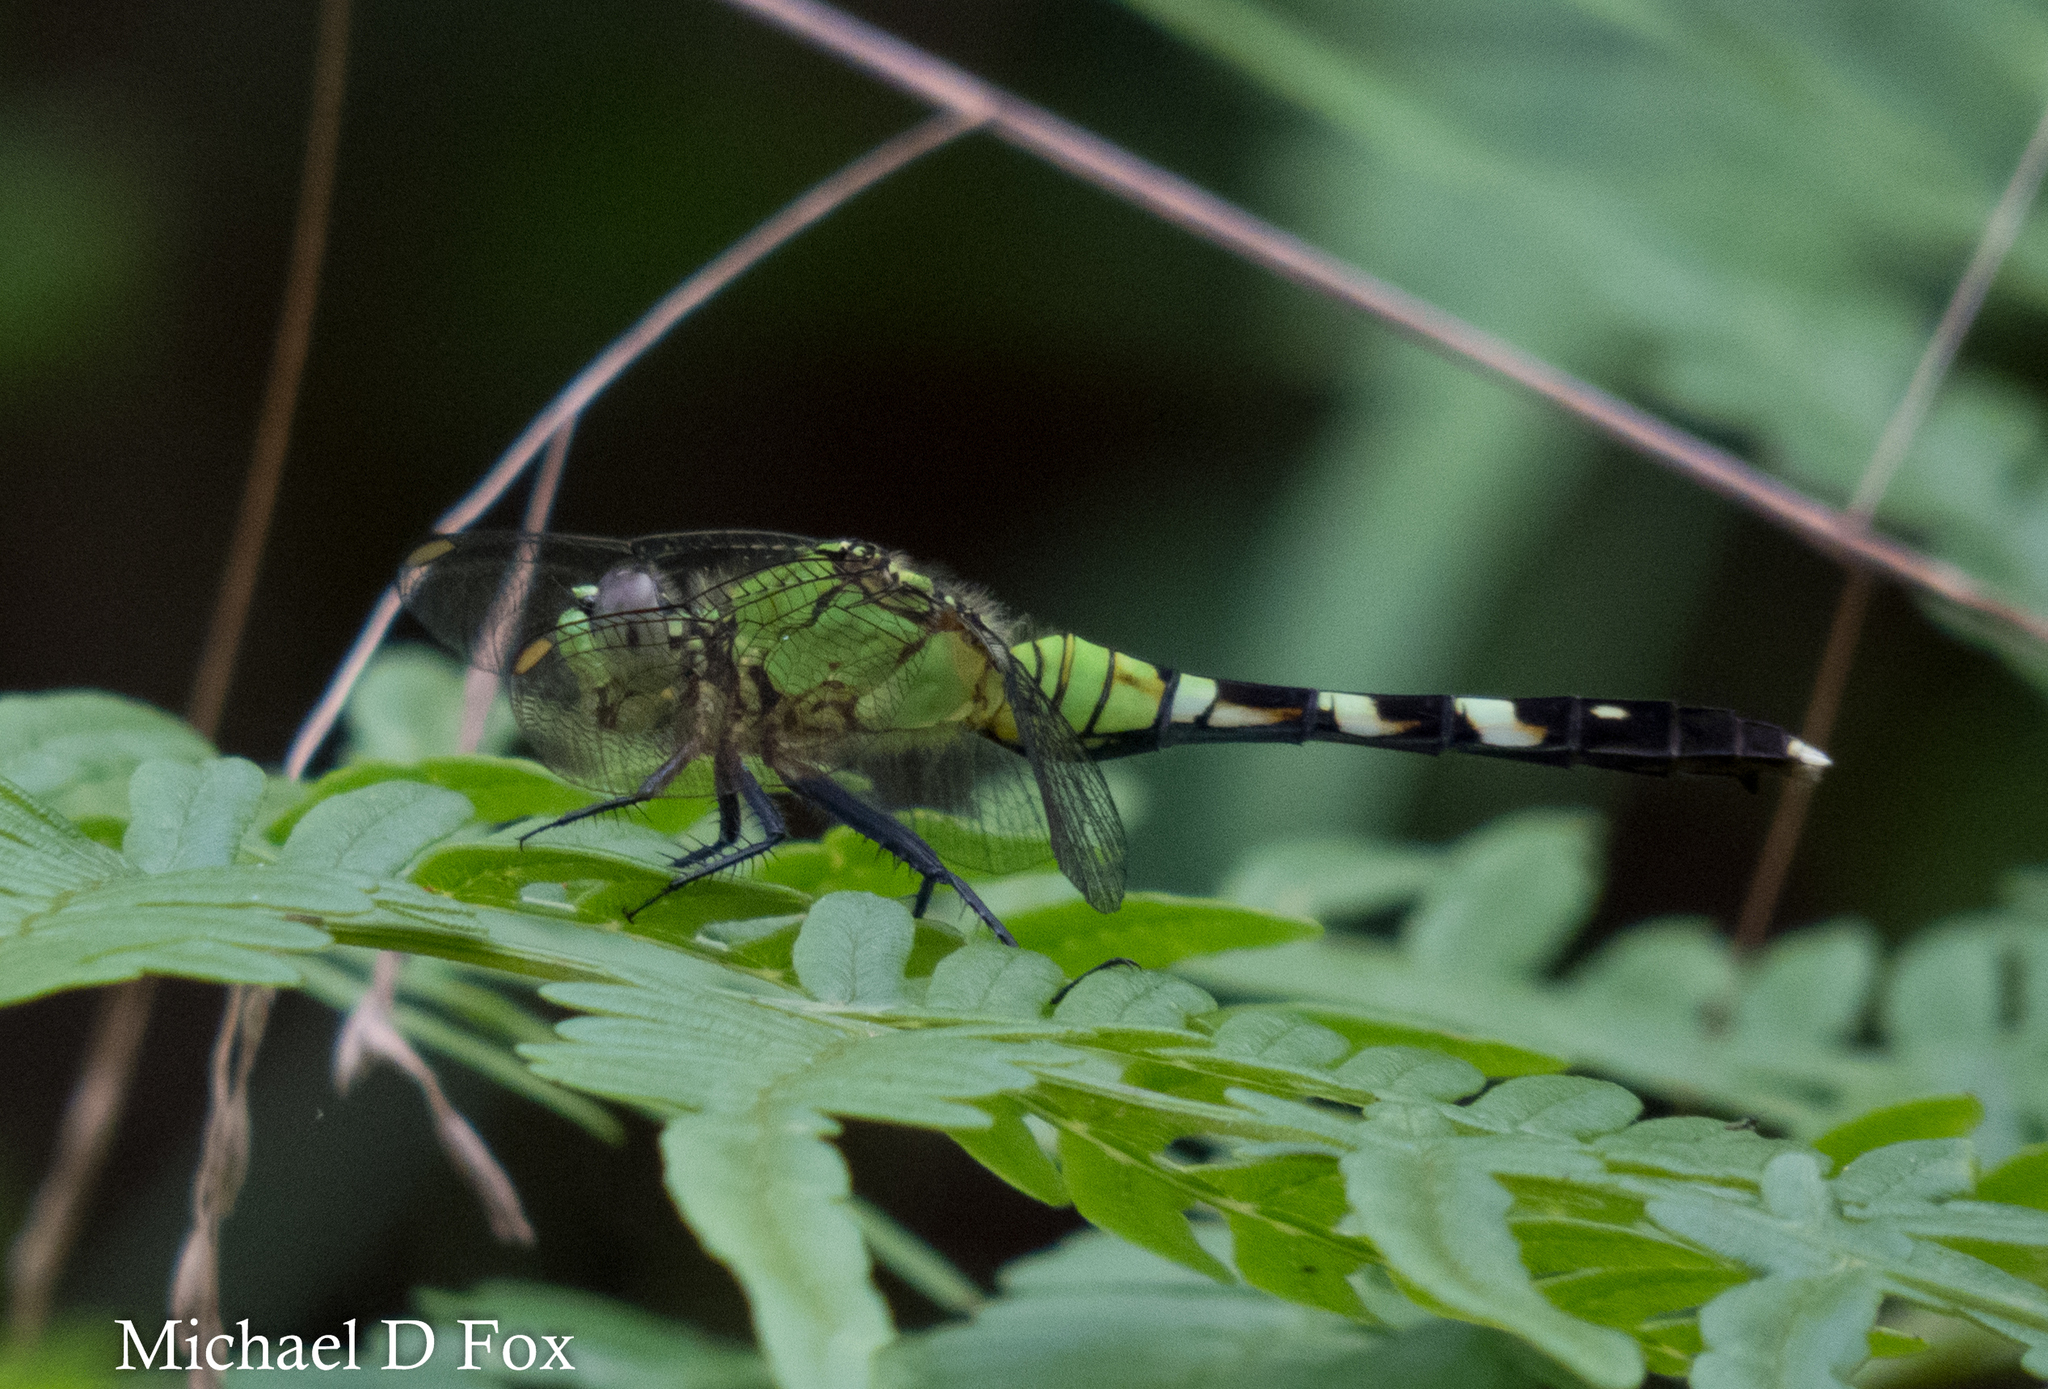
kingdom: Animalia
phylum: Arthropoda
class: Insecta
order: Odonata
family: Libellulidae
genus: Erythemis
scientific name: Erythemis simplicicollis
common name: Eastern pondhawk
